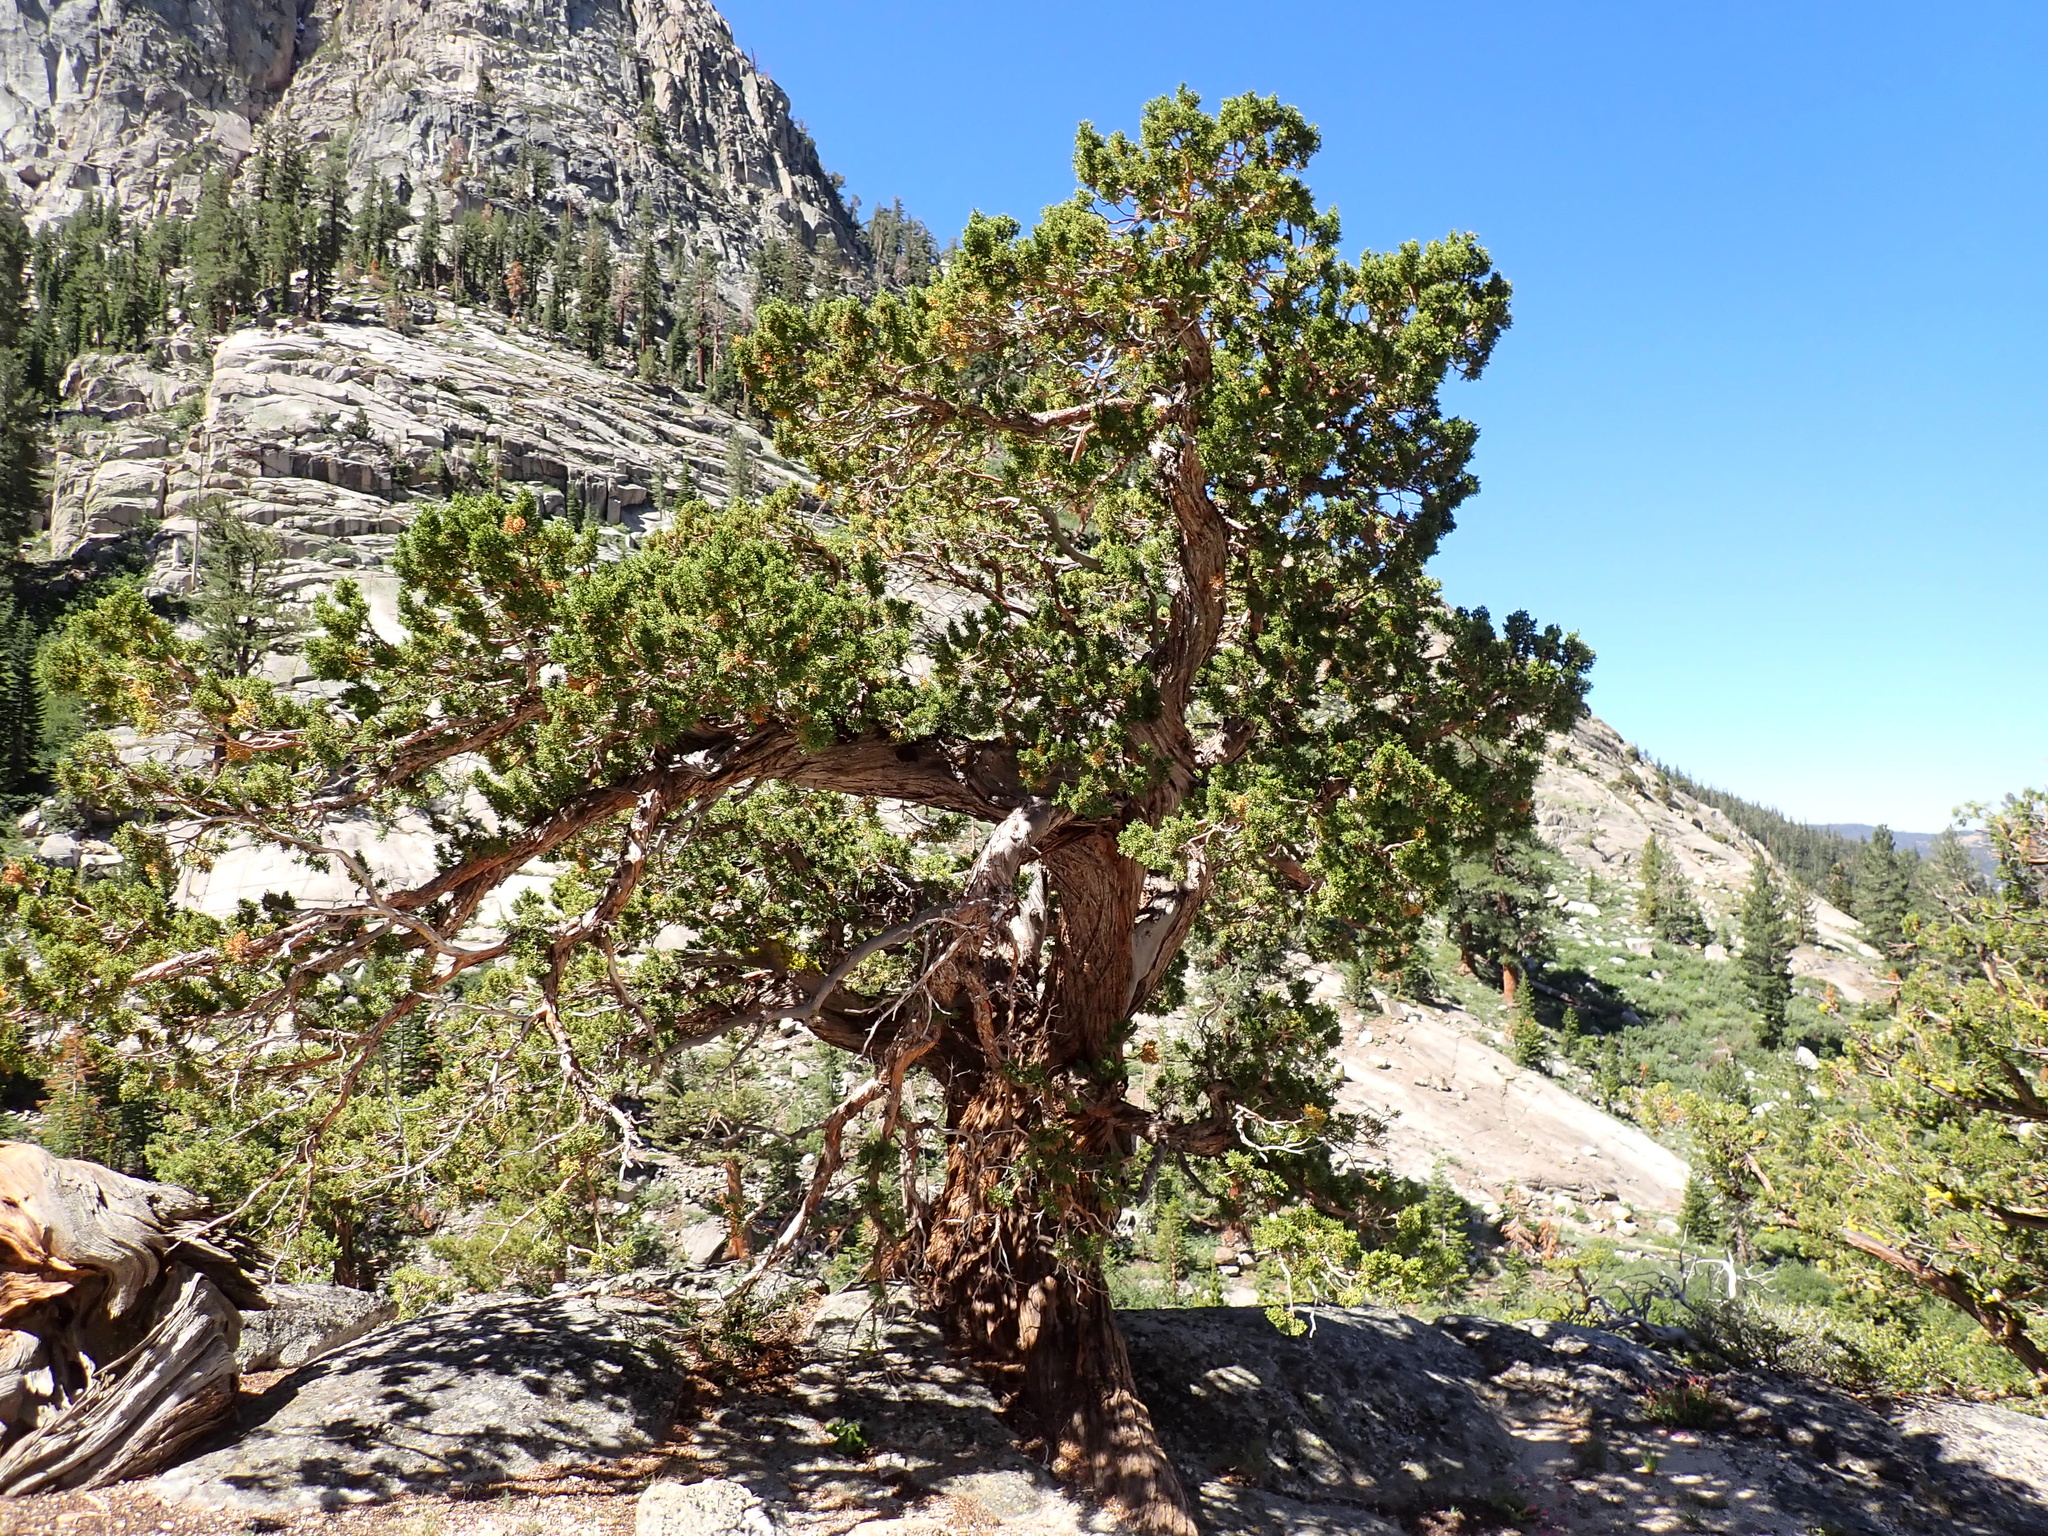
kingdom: Plantae
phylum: Tracheophyta
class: Pinopsida
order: Pinales
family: Cupressaceae
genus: Juniperus
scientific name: Juniperus occidentalis
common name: Western juniper
